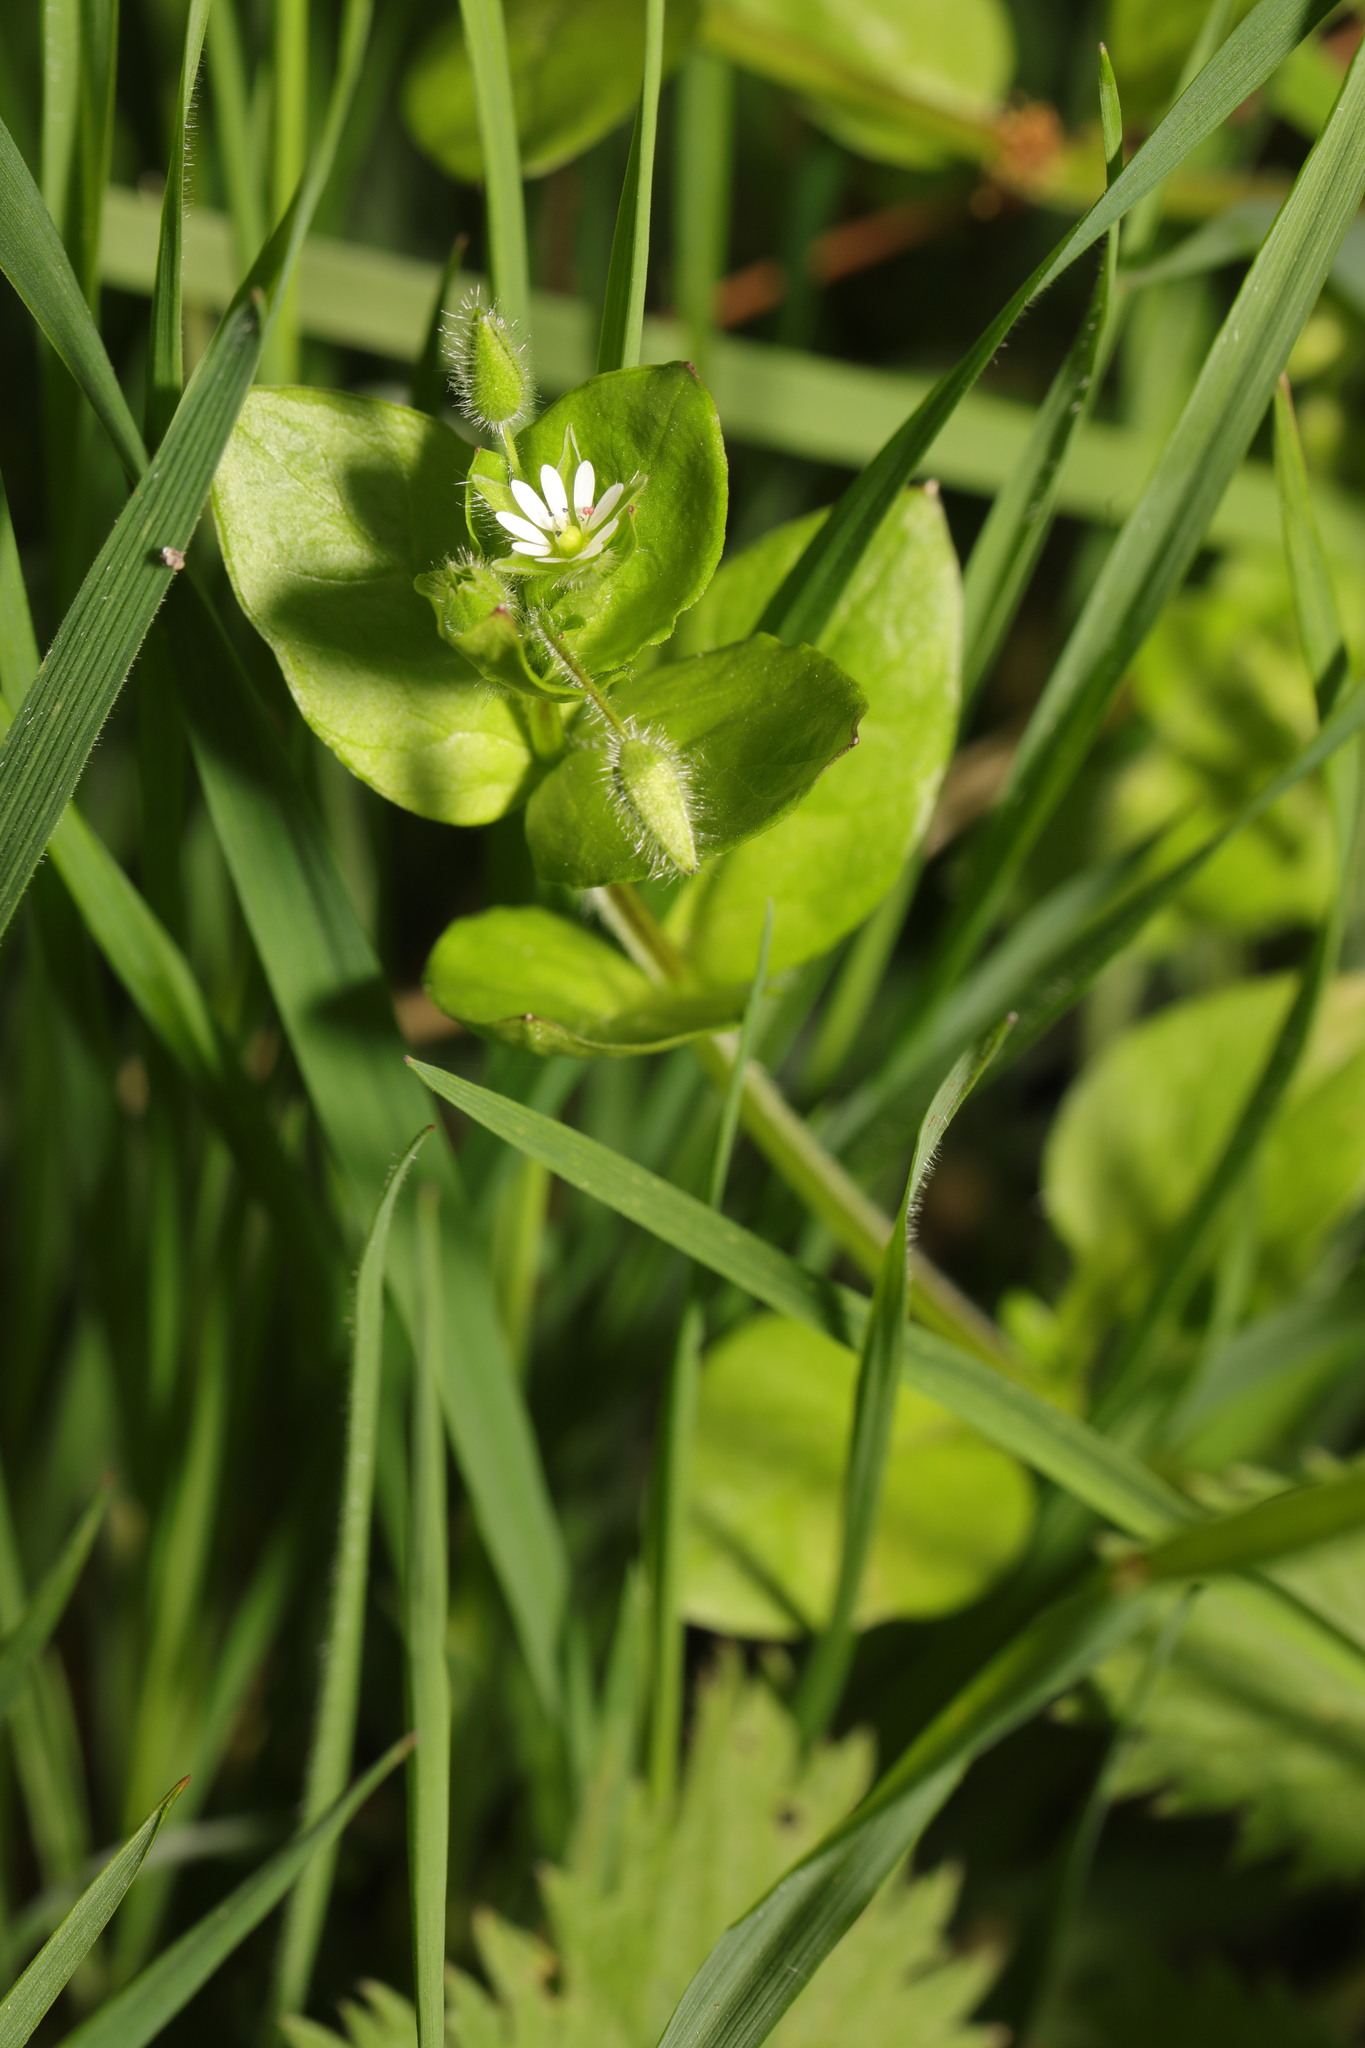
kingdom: Plantae
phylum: Tracheophyta
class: Magnoliopsida
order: Caryophyllales
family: Caryophyllaceae
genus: Stellaria
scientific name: Stellaria media
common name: Common chickweed
